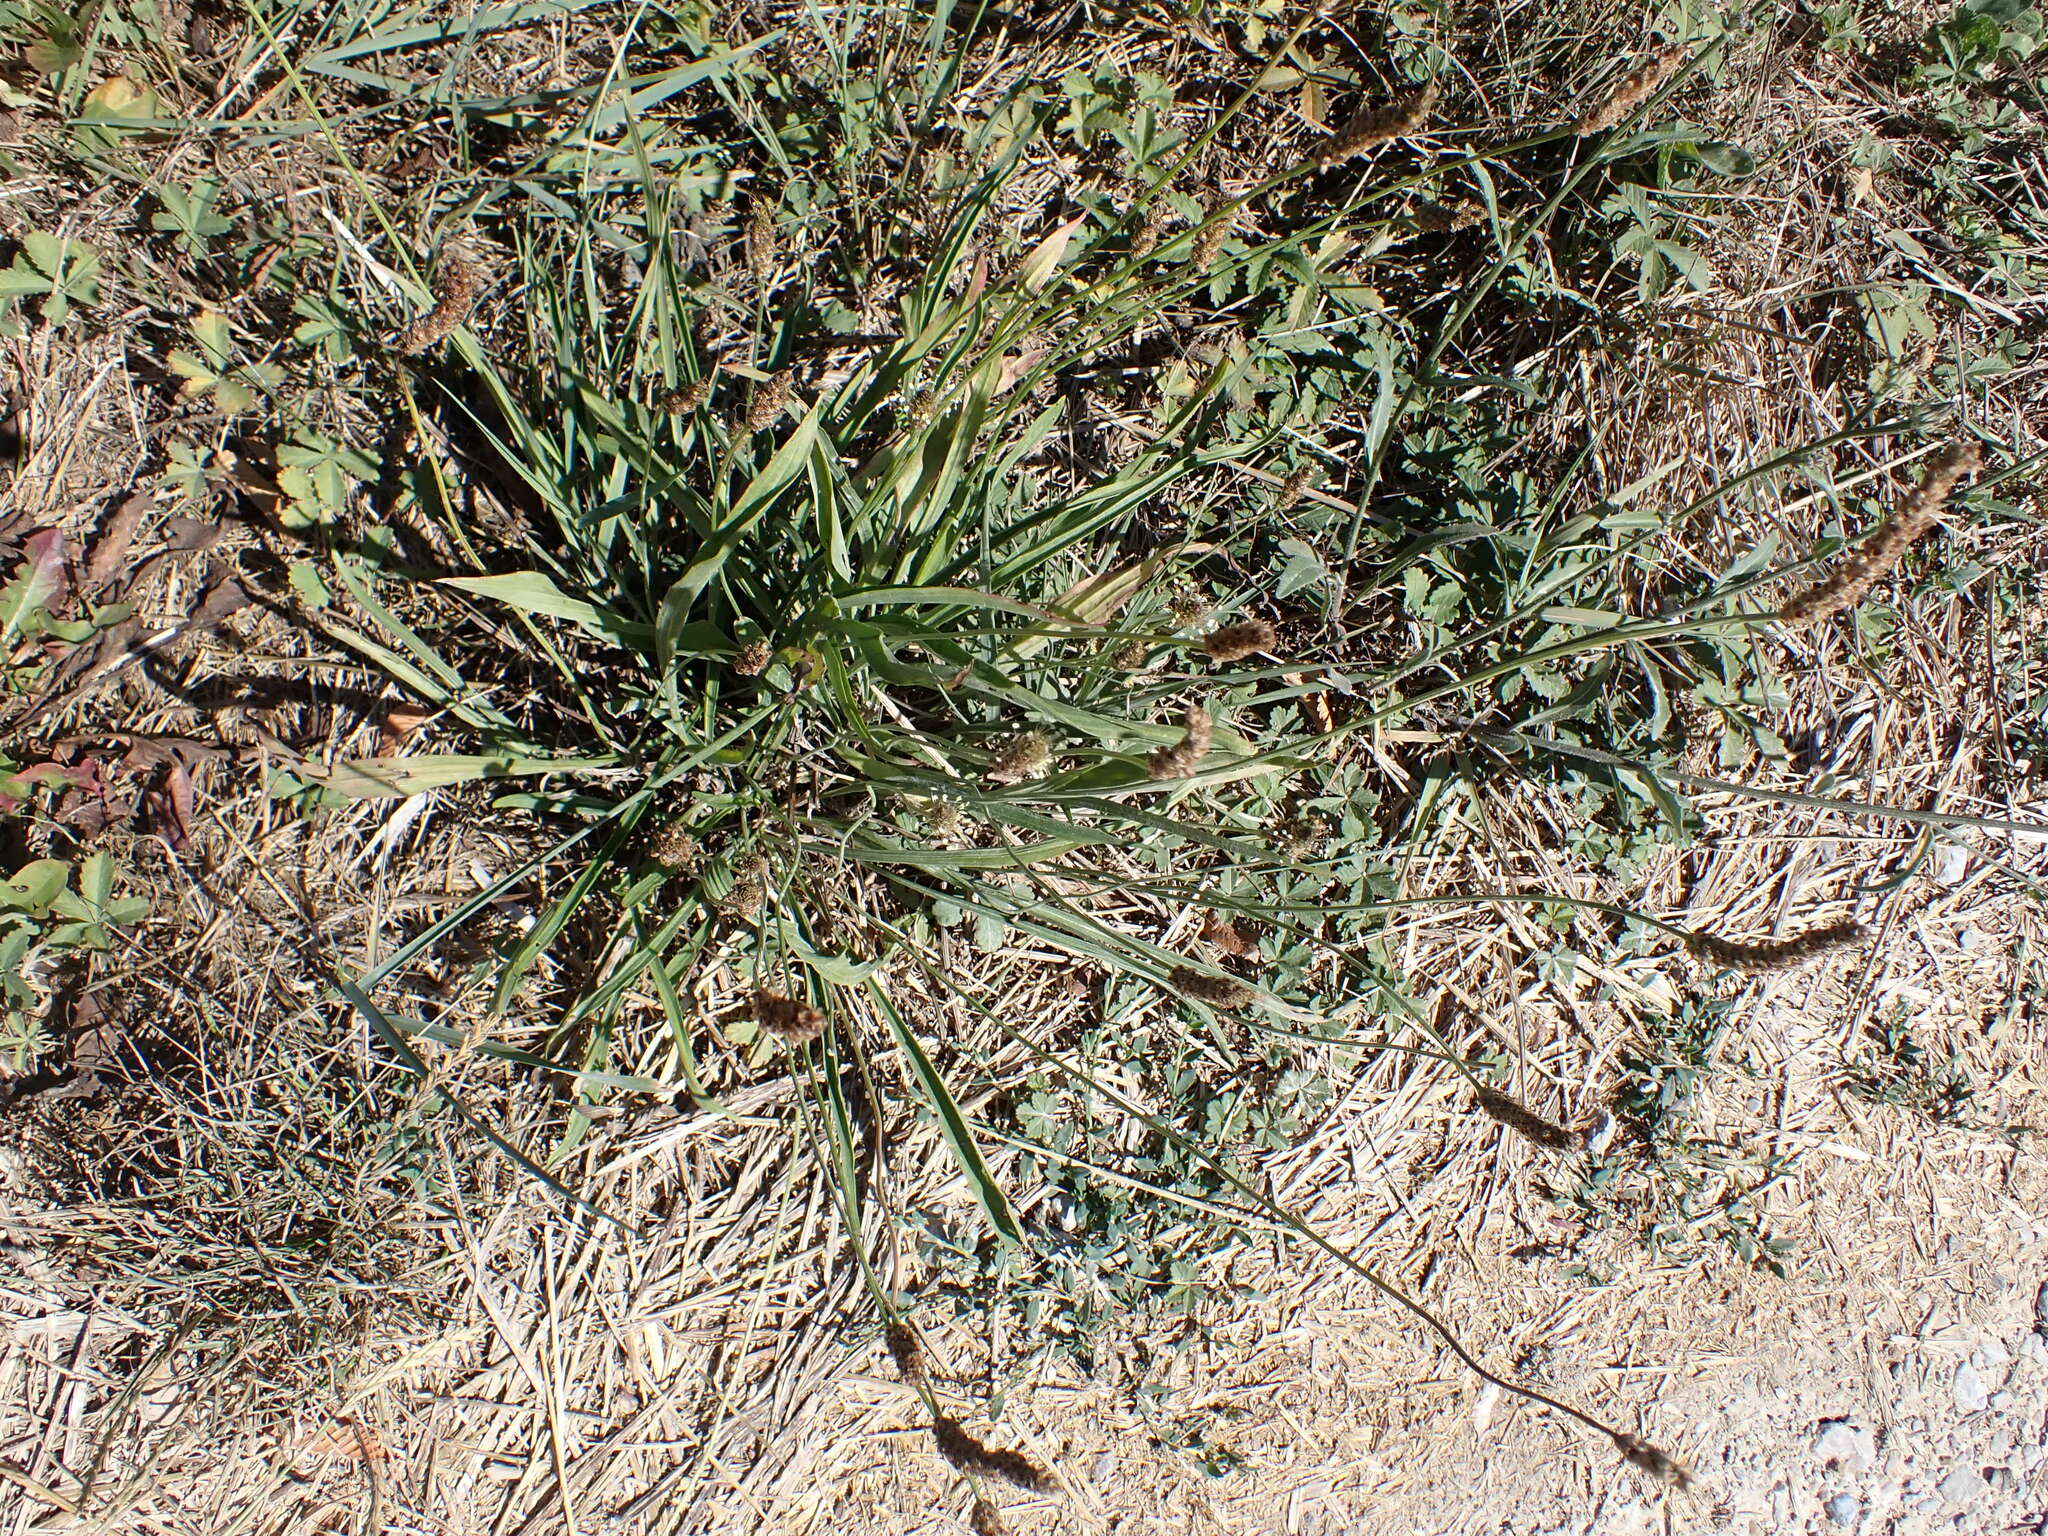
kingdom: Plantae
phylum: Tracheophyta
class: Magnoliopsida
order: Lamiales
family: Plantaginaceae
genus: Plantago
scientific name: Plantago lanceolata
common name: Ribwort plantain
